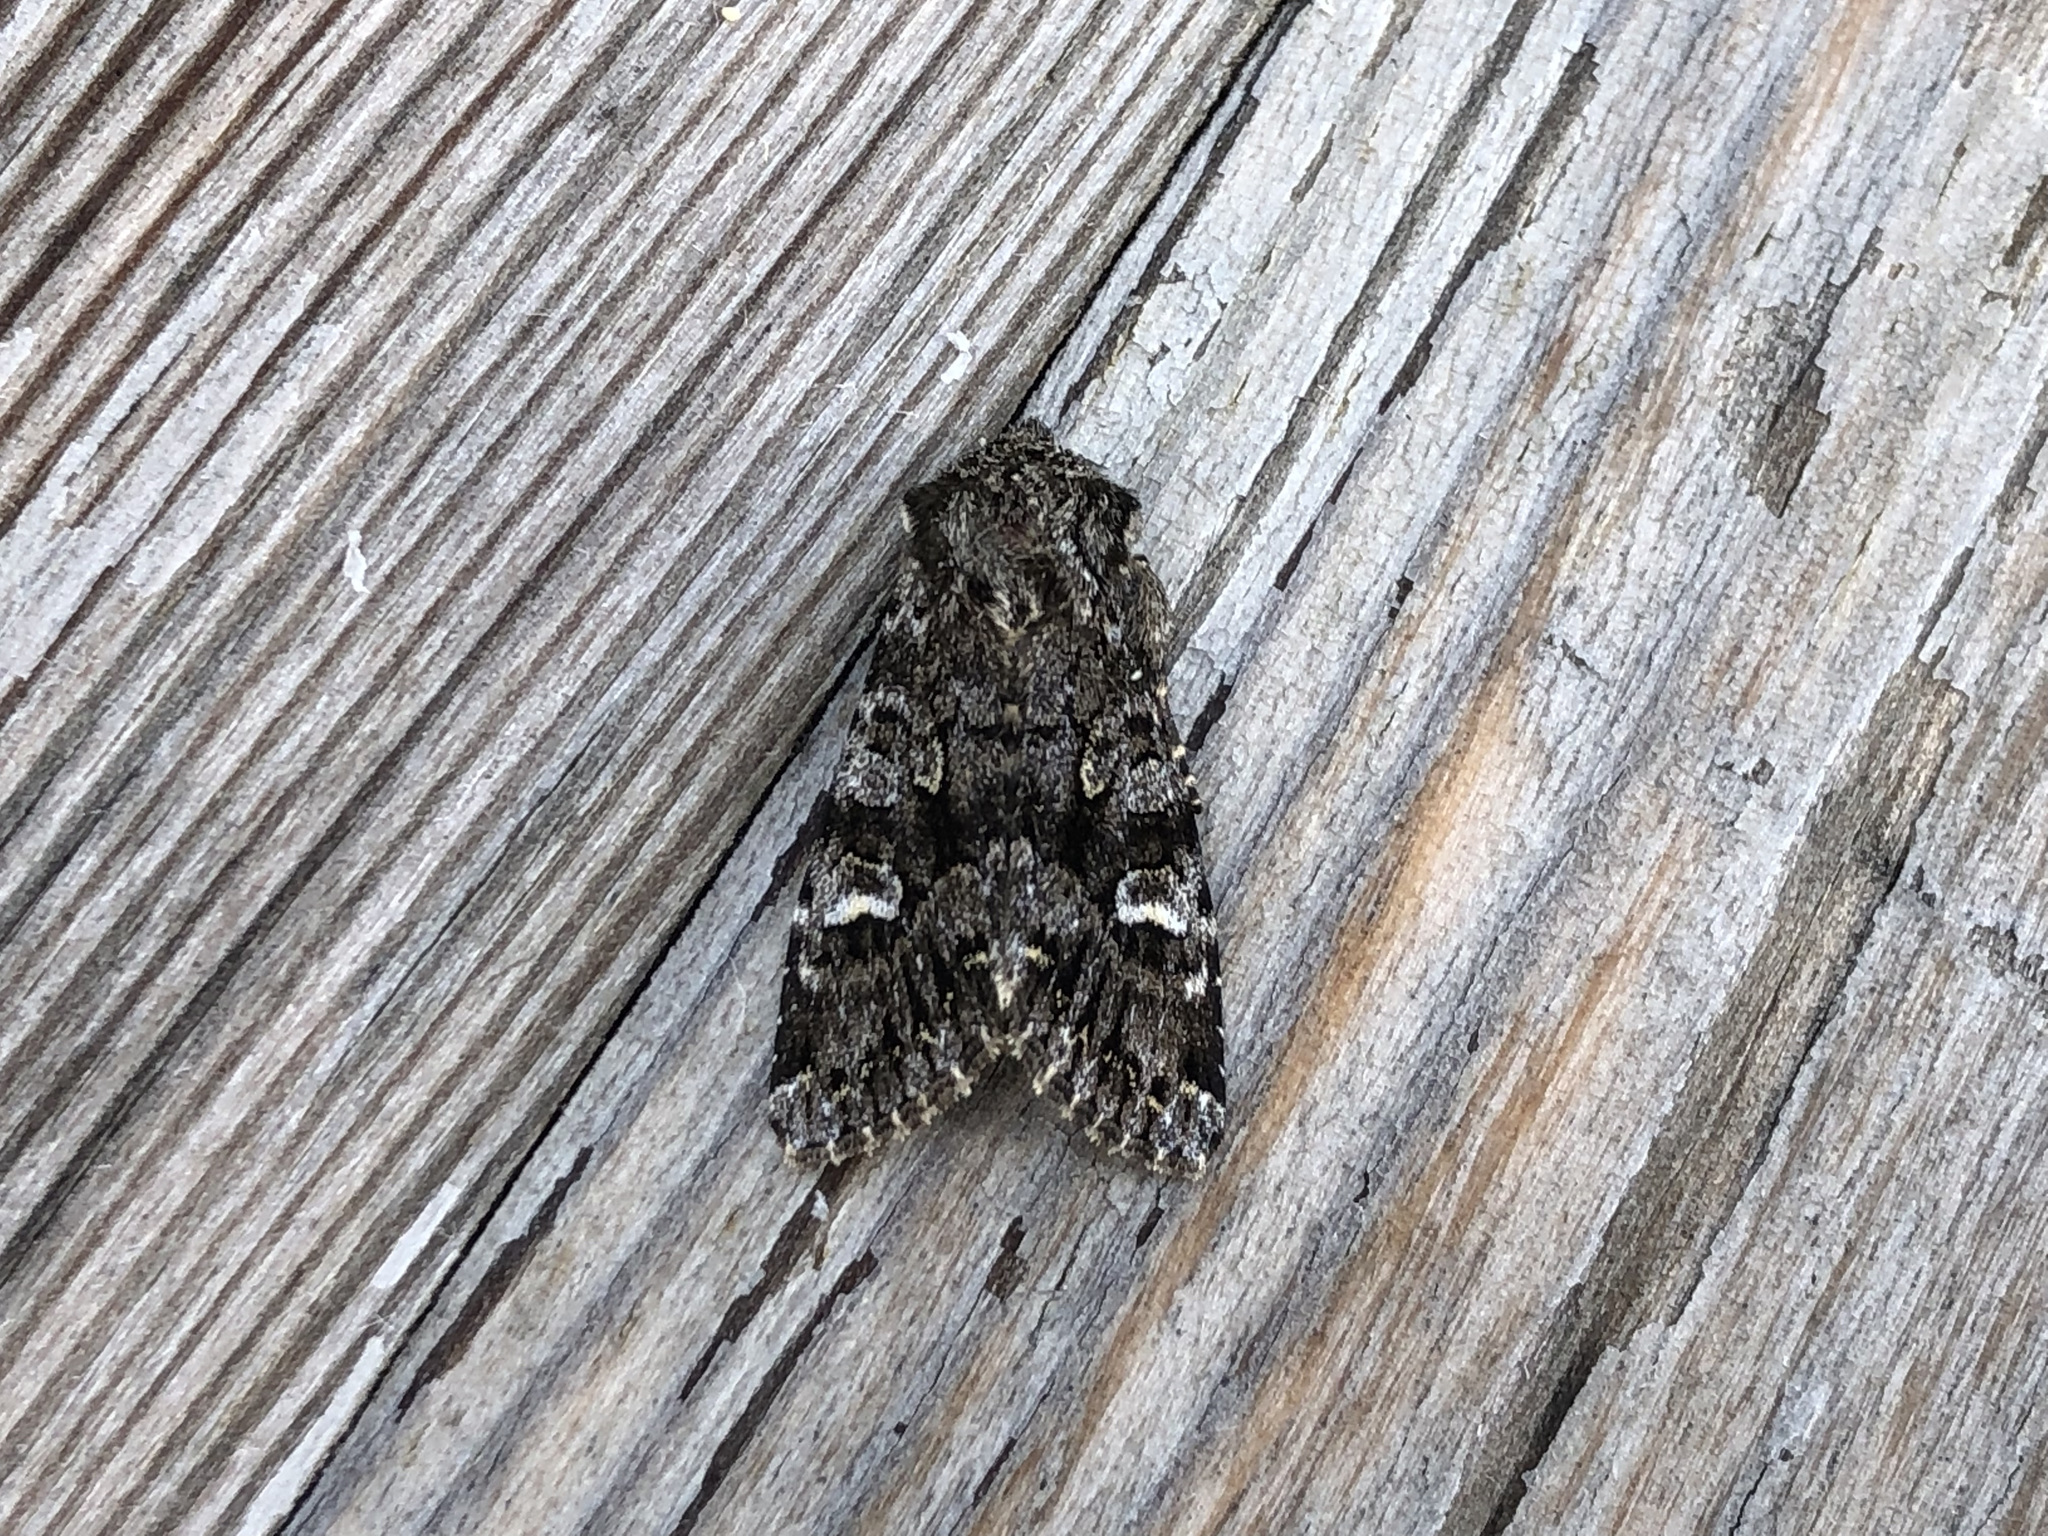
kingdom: Animalia
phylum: Arthropoda
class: Insecta
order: Lepidoptera
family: Noctuidae
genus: Papestra
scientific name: Papestra biren
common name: Glaucous shears
